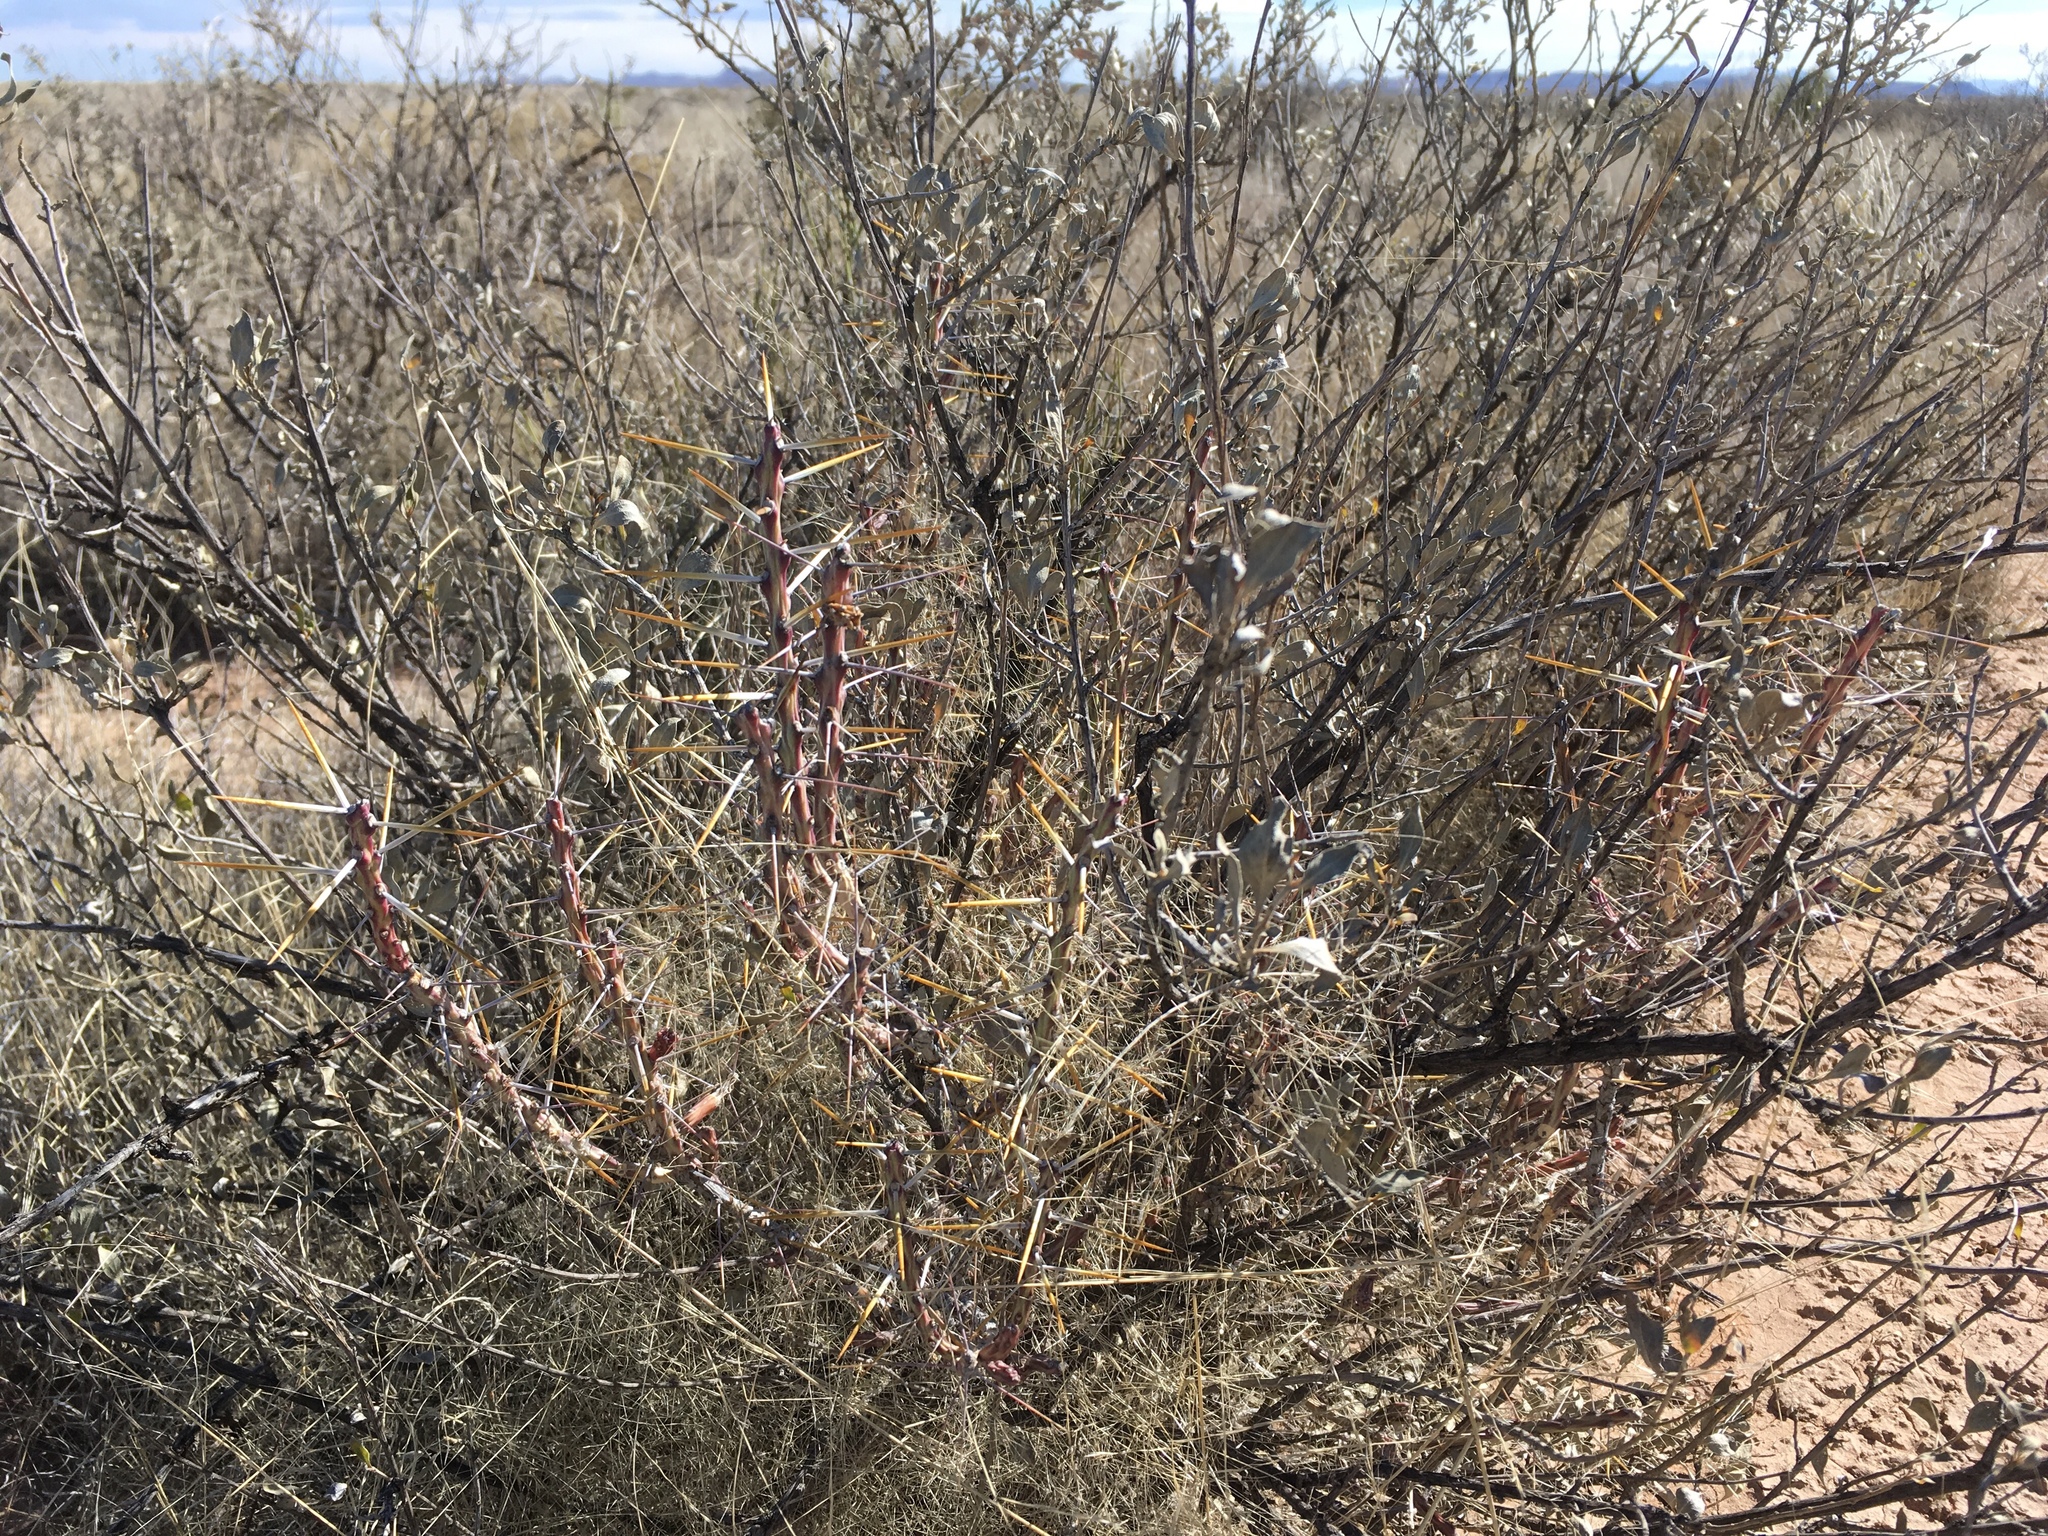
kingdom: Plantae
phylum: Tracheophyta
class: Magnoliopsida
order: Caryophyllales
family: Cactaceae
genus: Cylindropuntia
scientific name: Cylindropuntia leptocaulis
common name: Christmas cactus
